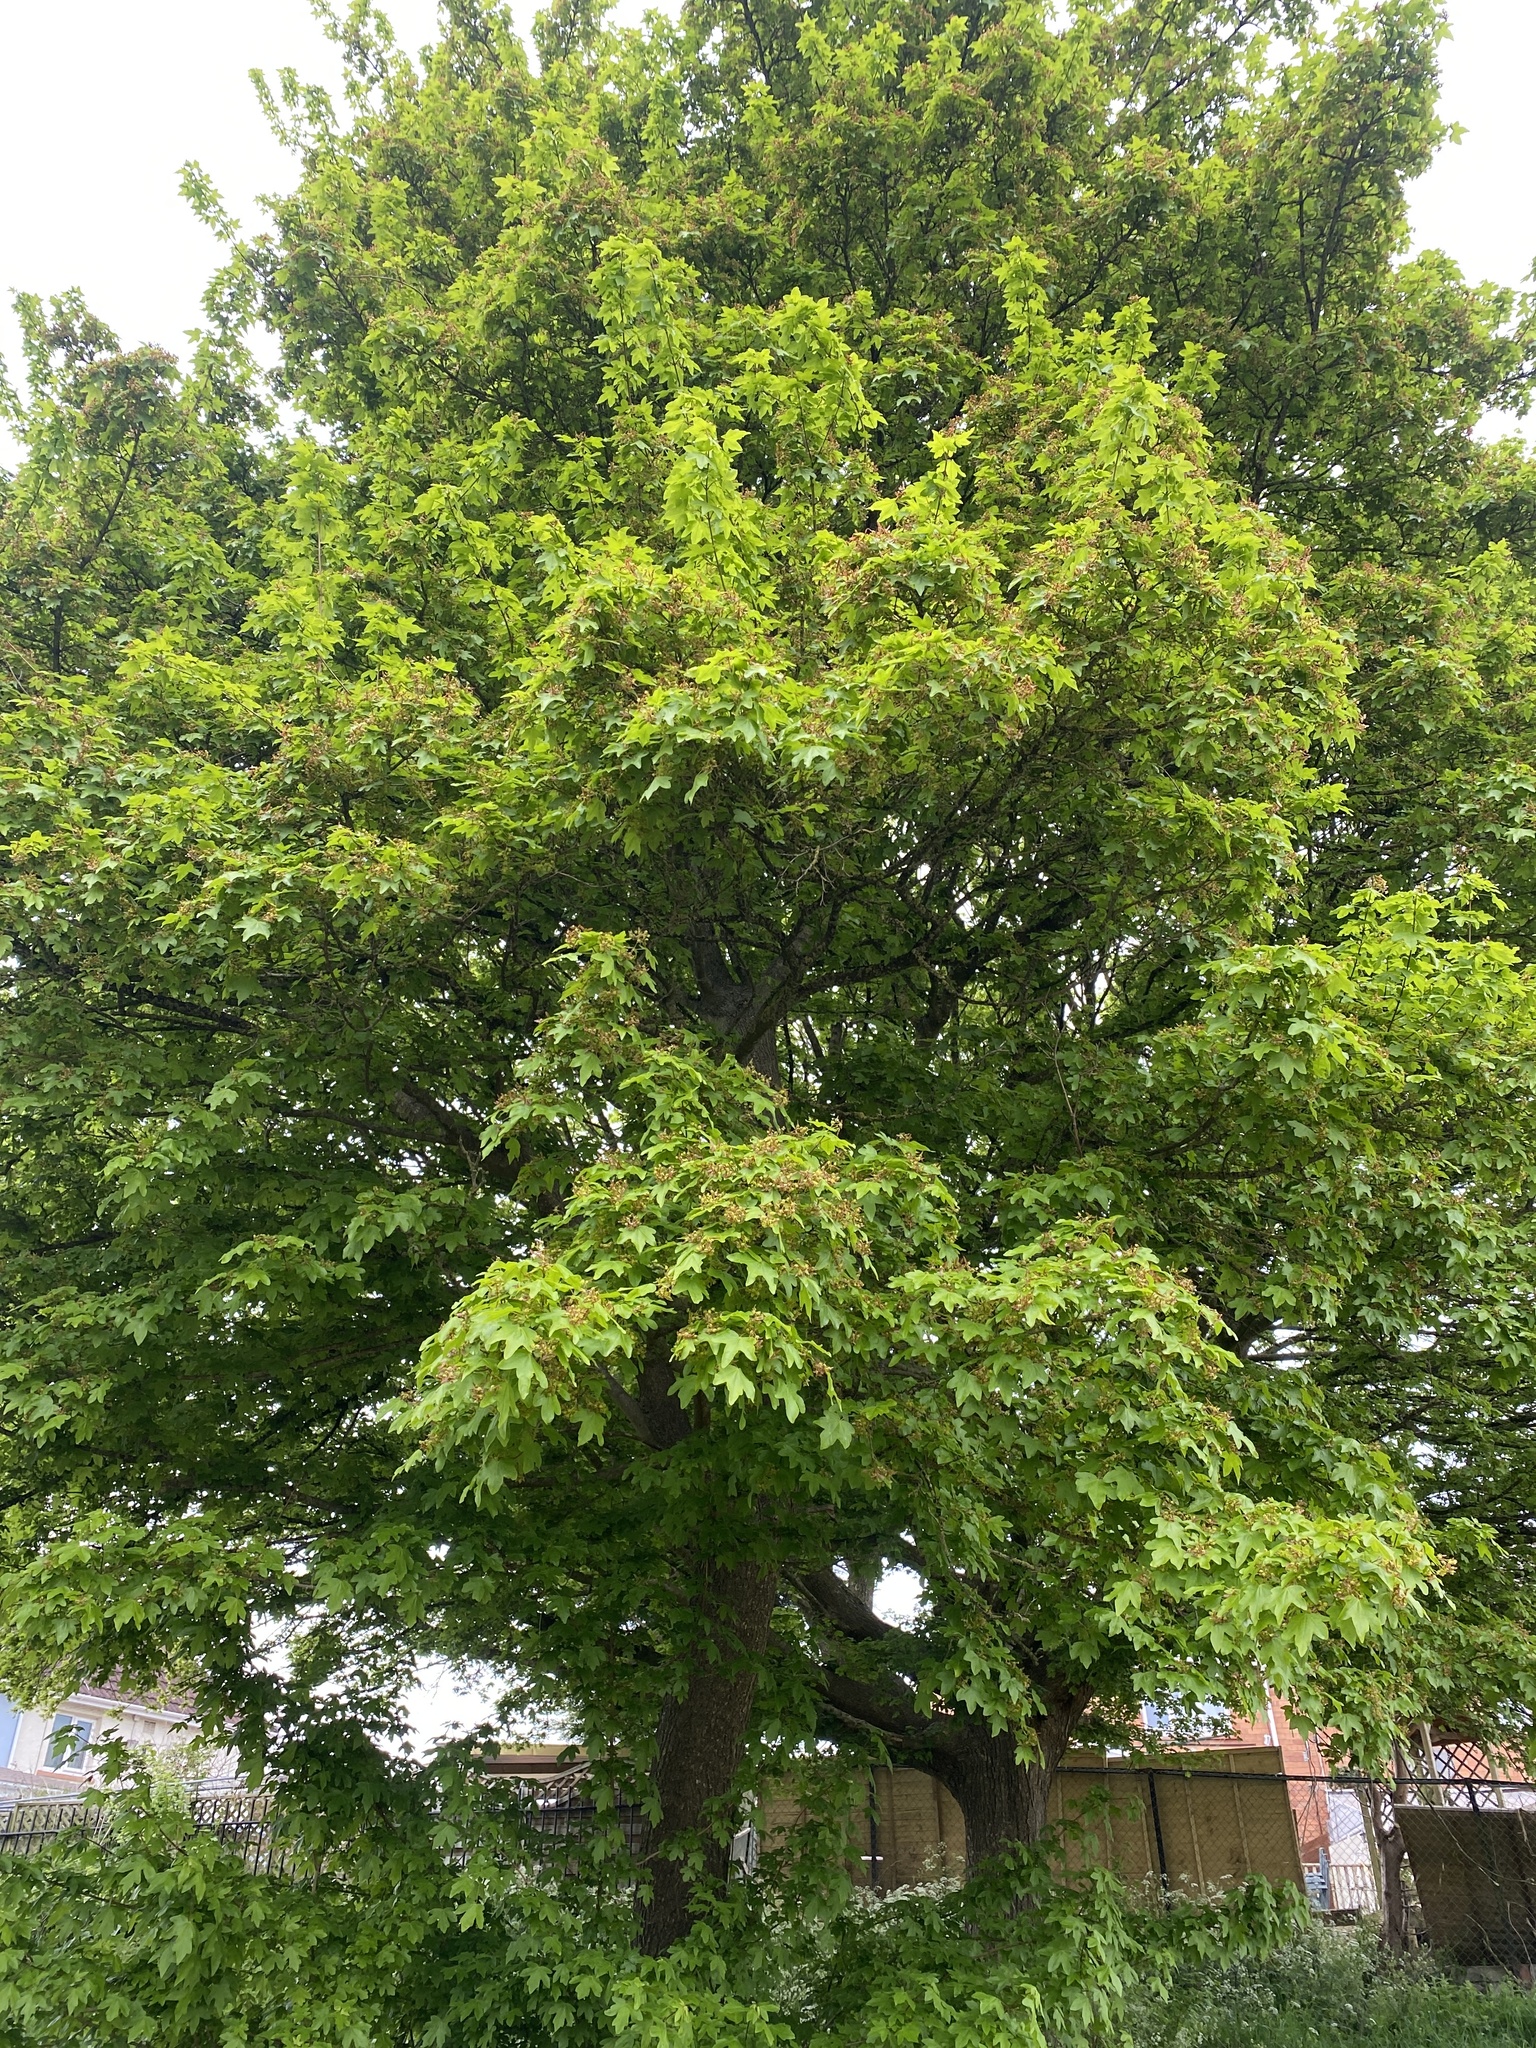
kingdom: Plantae
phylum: Tracheophyta
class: Magnoliopsida
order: Sapindales
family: Sapindaceae
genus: Acer
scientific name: Acer campestre
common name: Field maple
